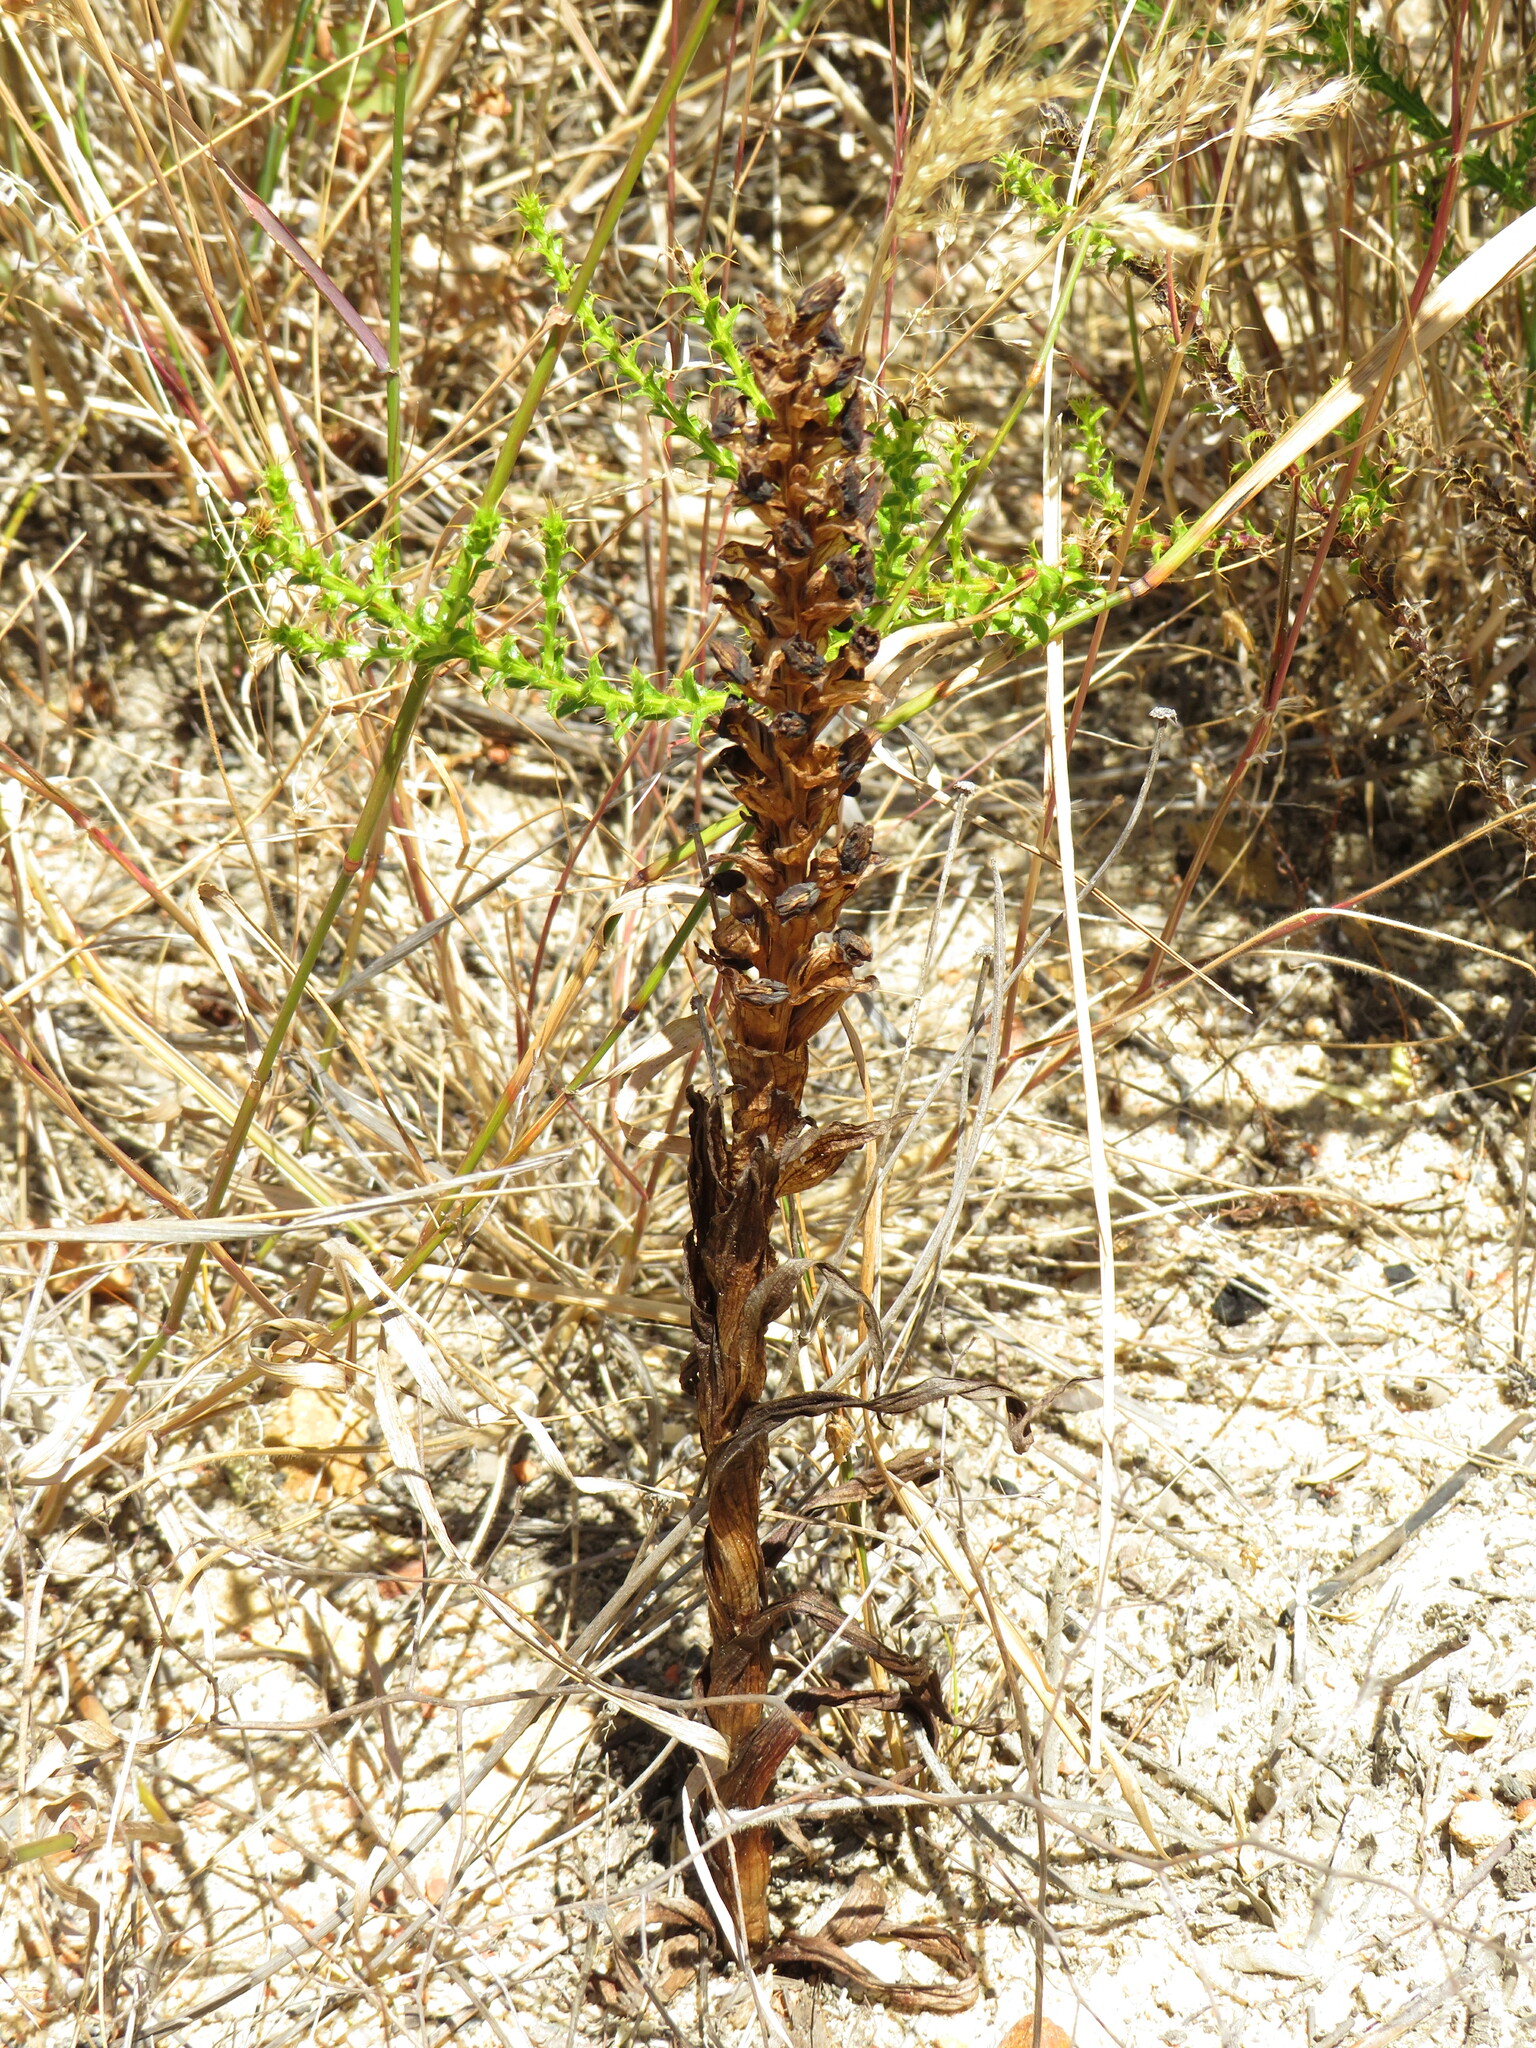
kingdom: Plantae
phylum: Tracheophyta
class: Liliopsida
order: Asparagales
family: Orchidaceae
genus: Corycium
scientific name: Corycium orobanchoides
